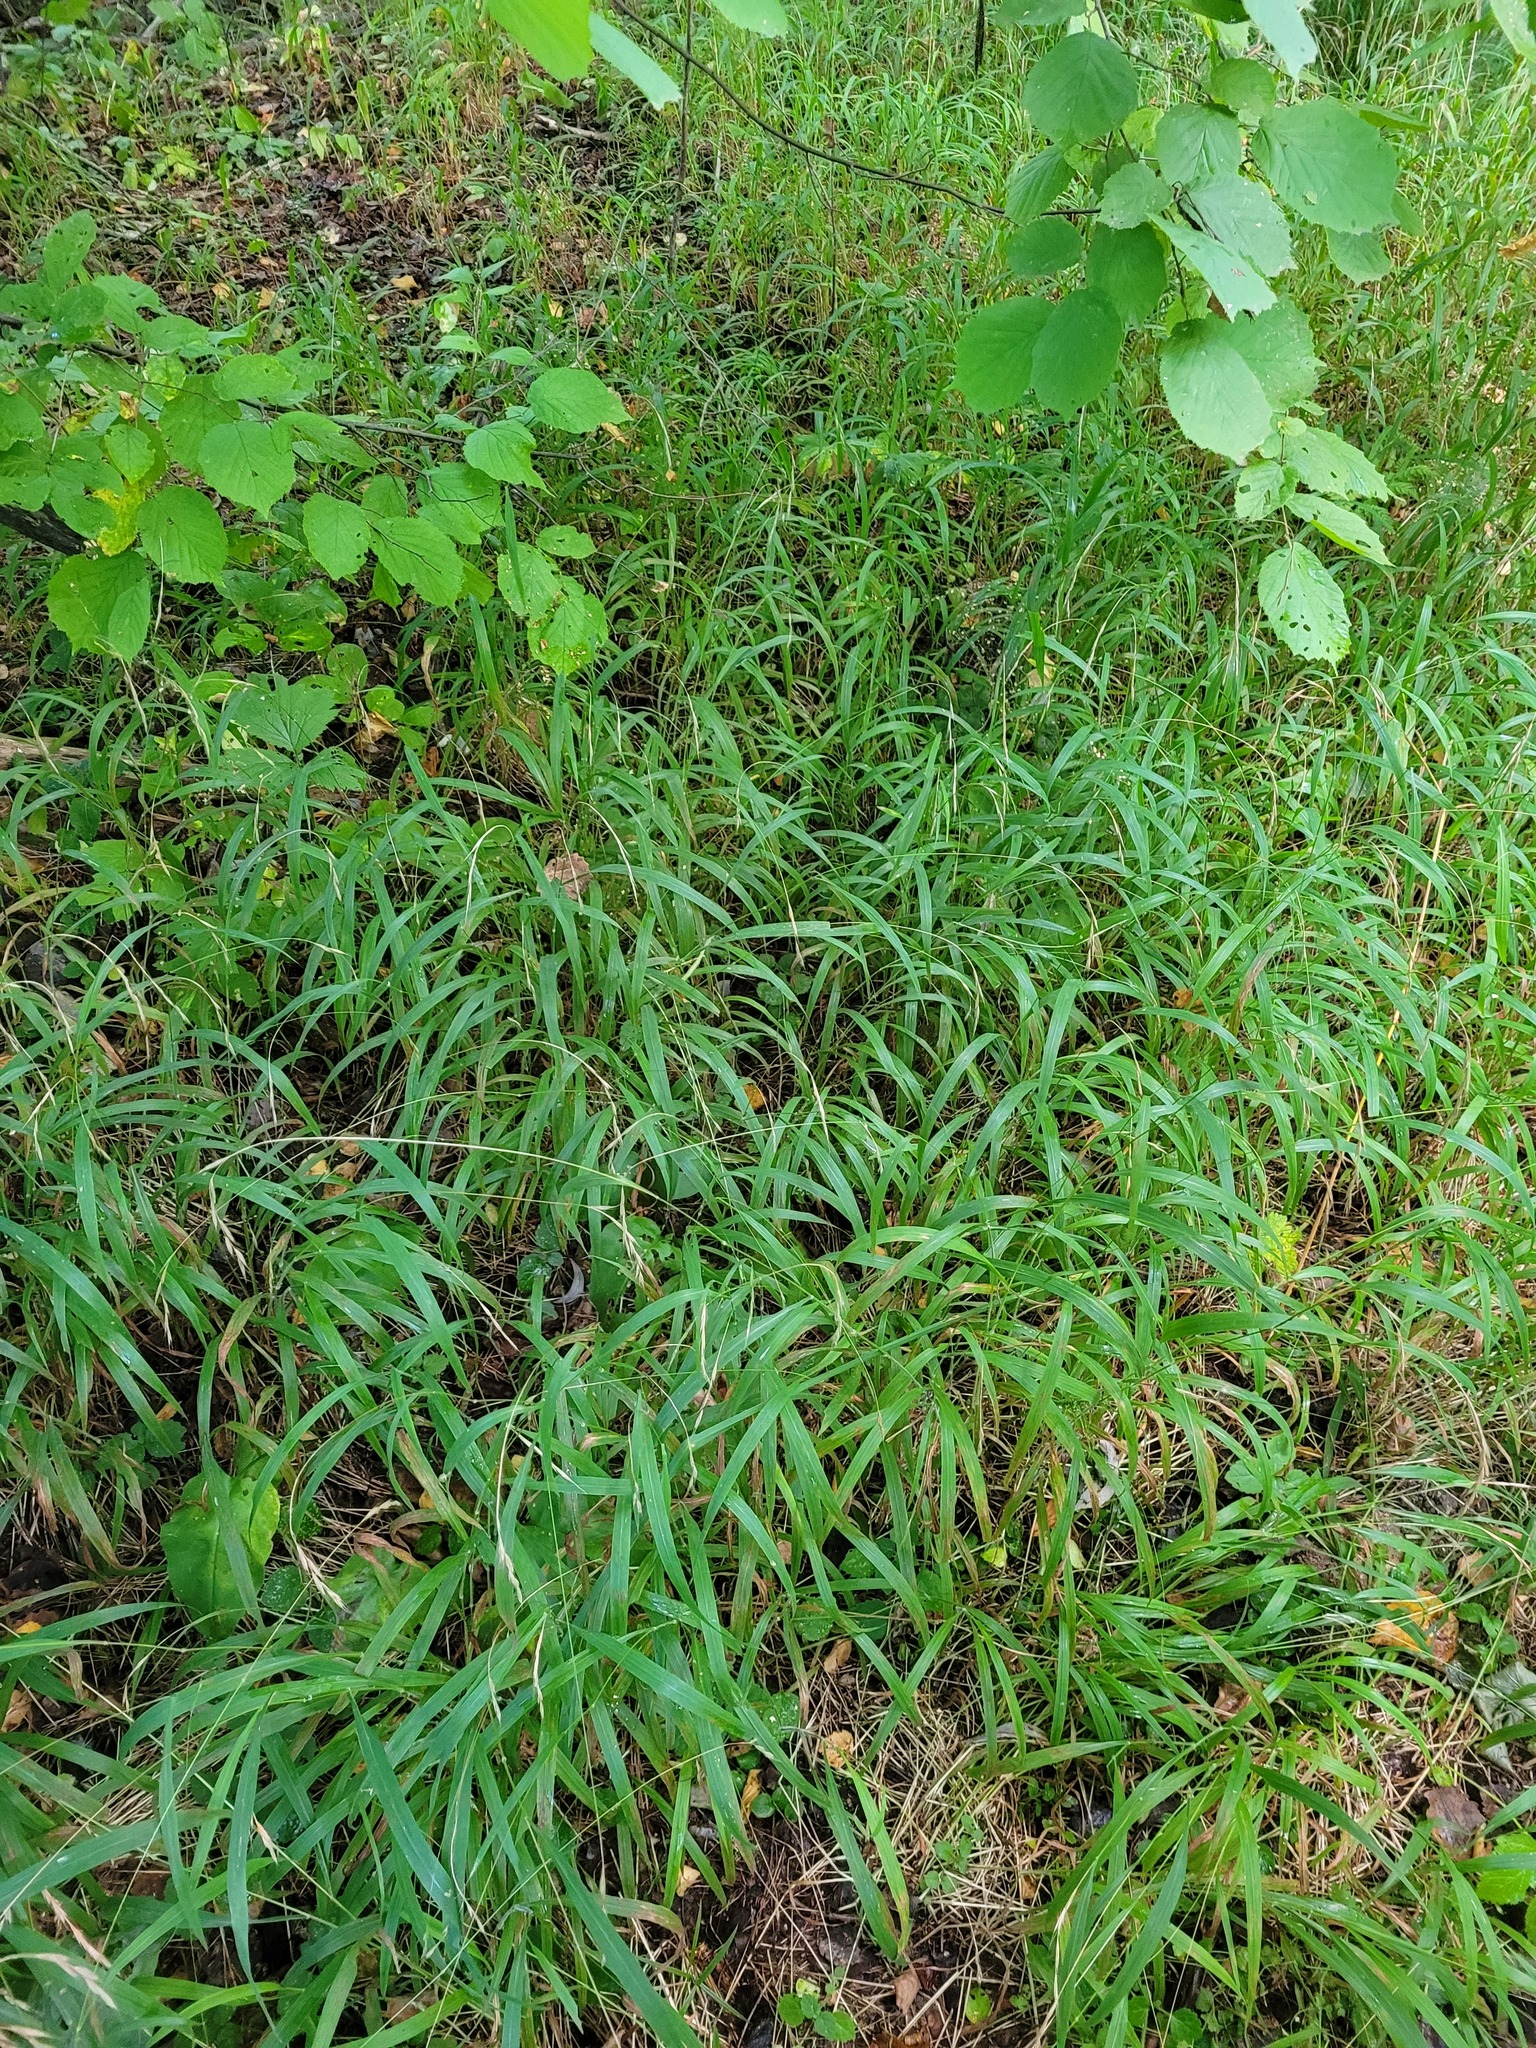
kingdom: Plantae
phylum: Tracheophyta
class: Liliopsida
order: Poales
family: Poaceae
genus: Brachypodium
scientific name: Brachypodium sylvaticum
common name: False-brome
